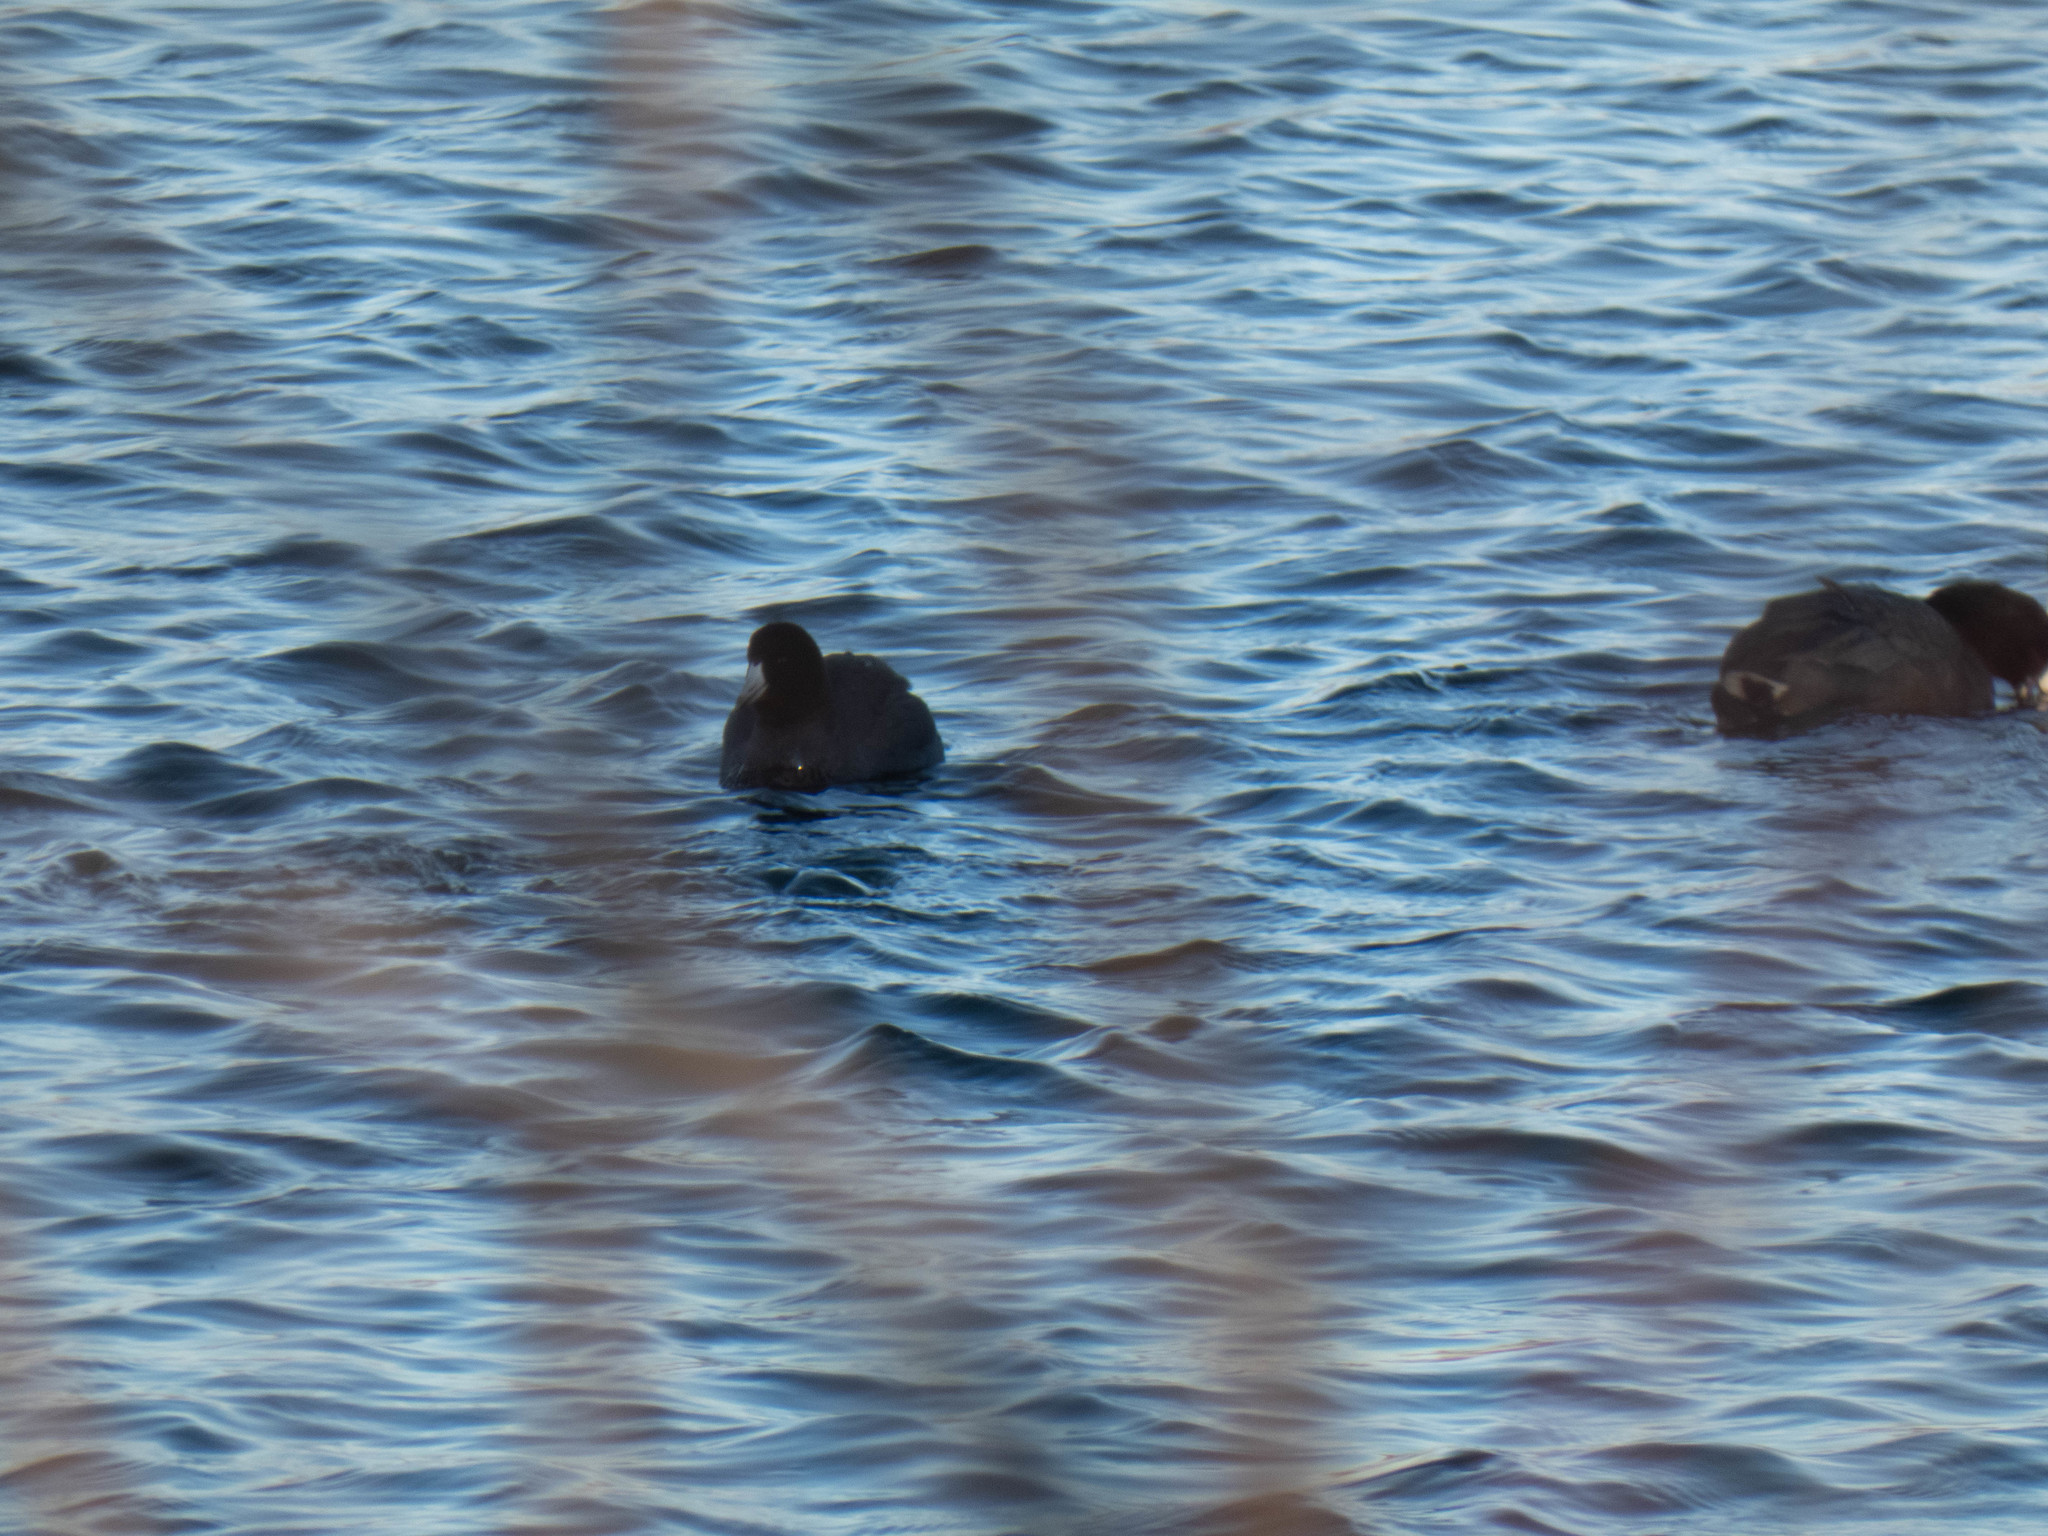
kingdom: Animalia
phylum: Chordata
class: Aves
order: Gruiformes
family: Rallidae
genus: Fulica
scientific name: Fulica americana
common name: American coot
